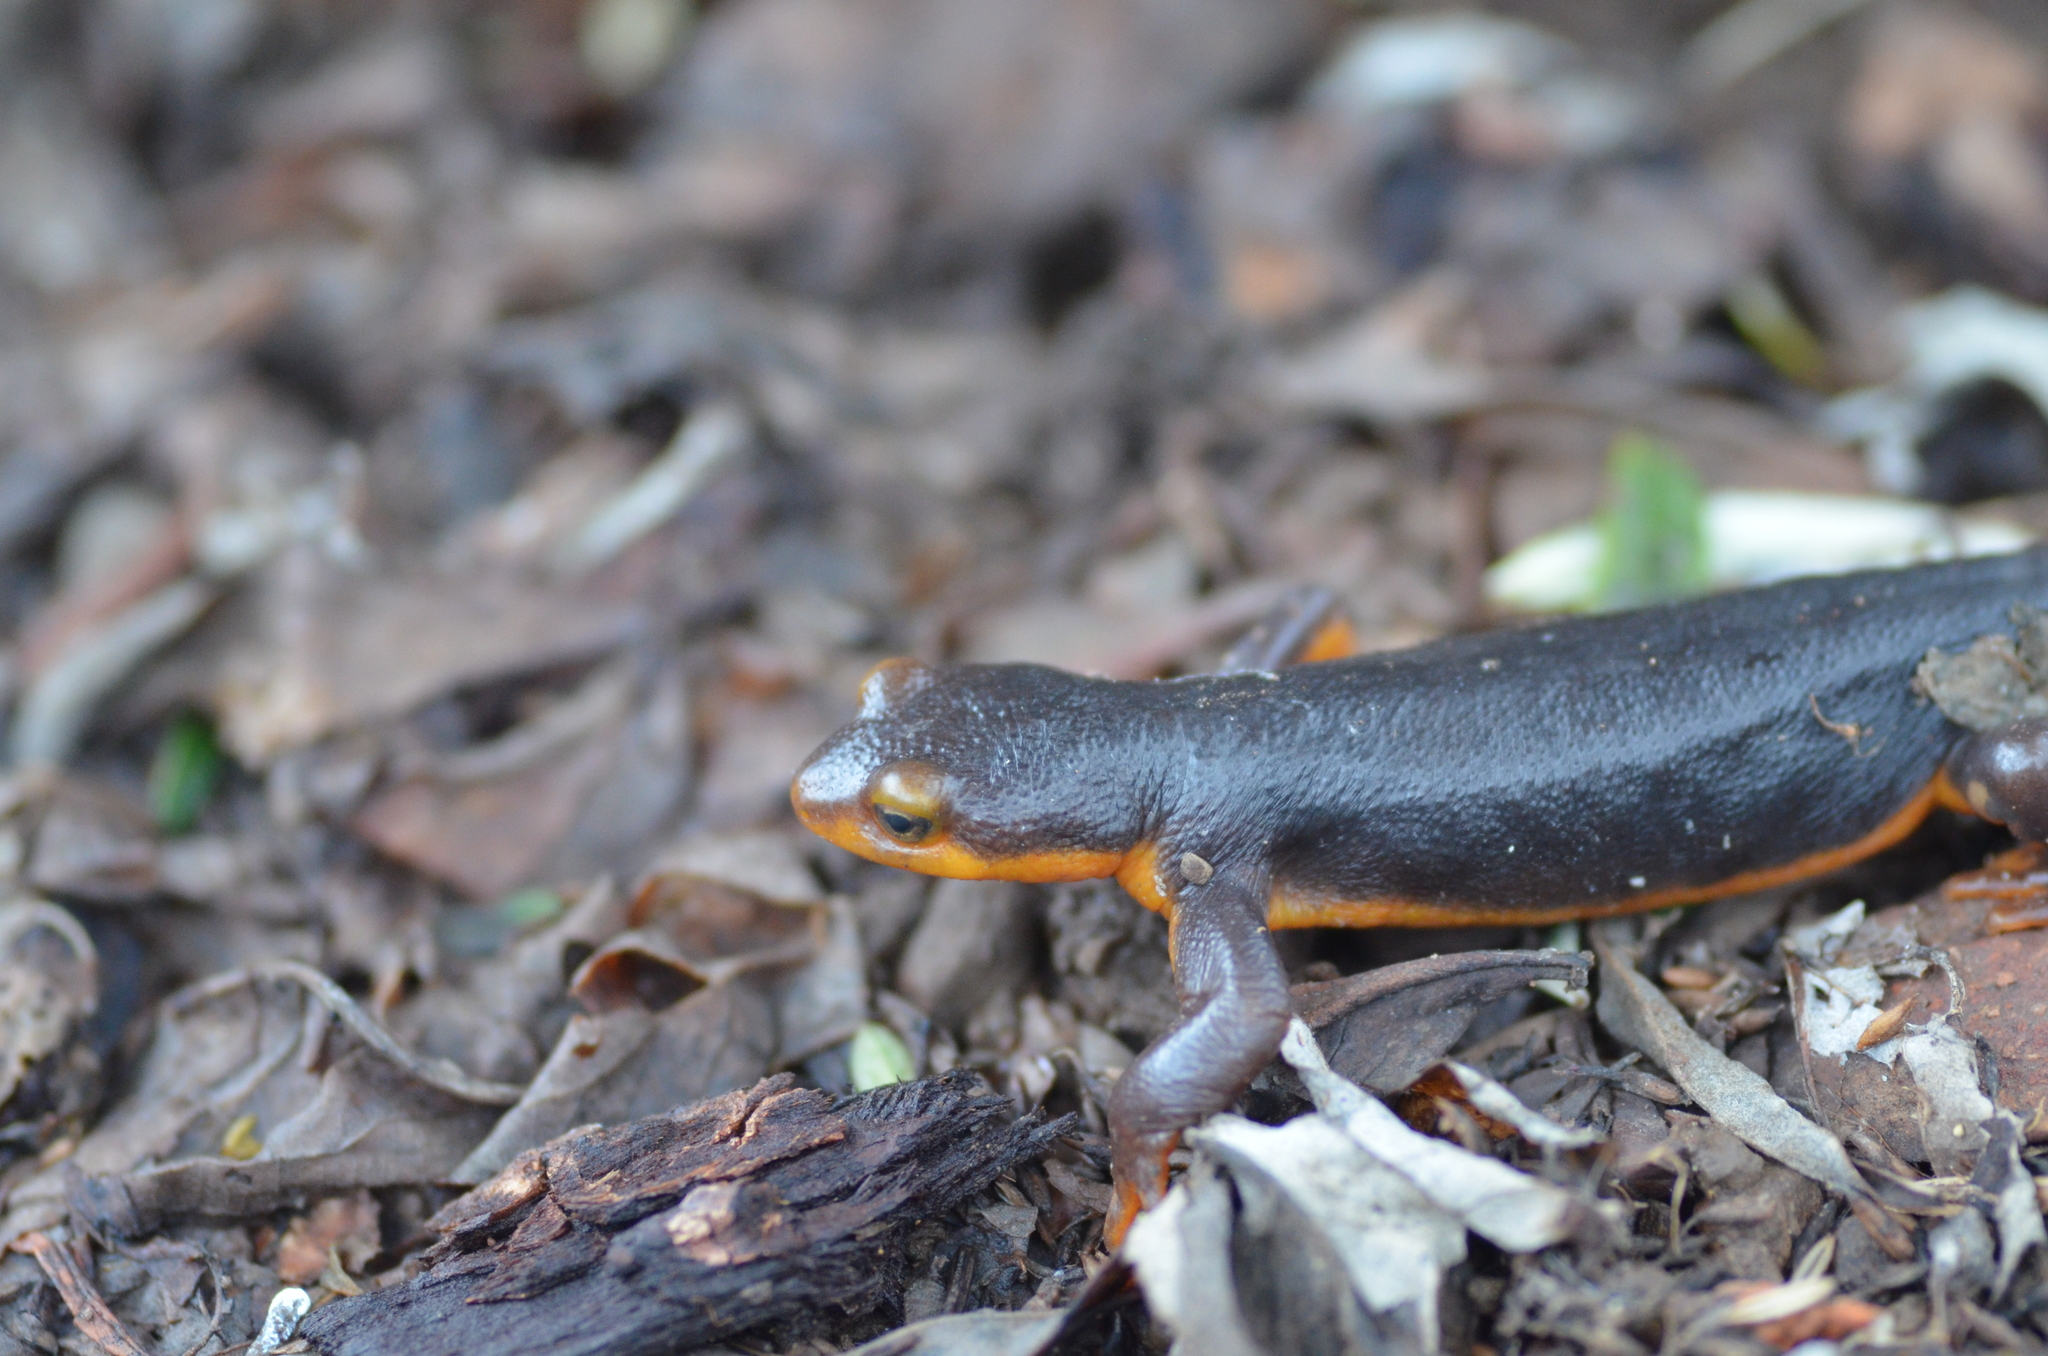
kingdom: Animalia
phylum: Chordata
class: Amphibia
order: Caudata
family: Salamandridae
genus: Taricha
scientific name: Taricha torosa
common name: California newt
